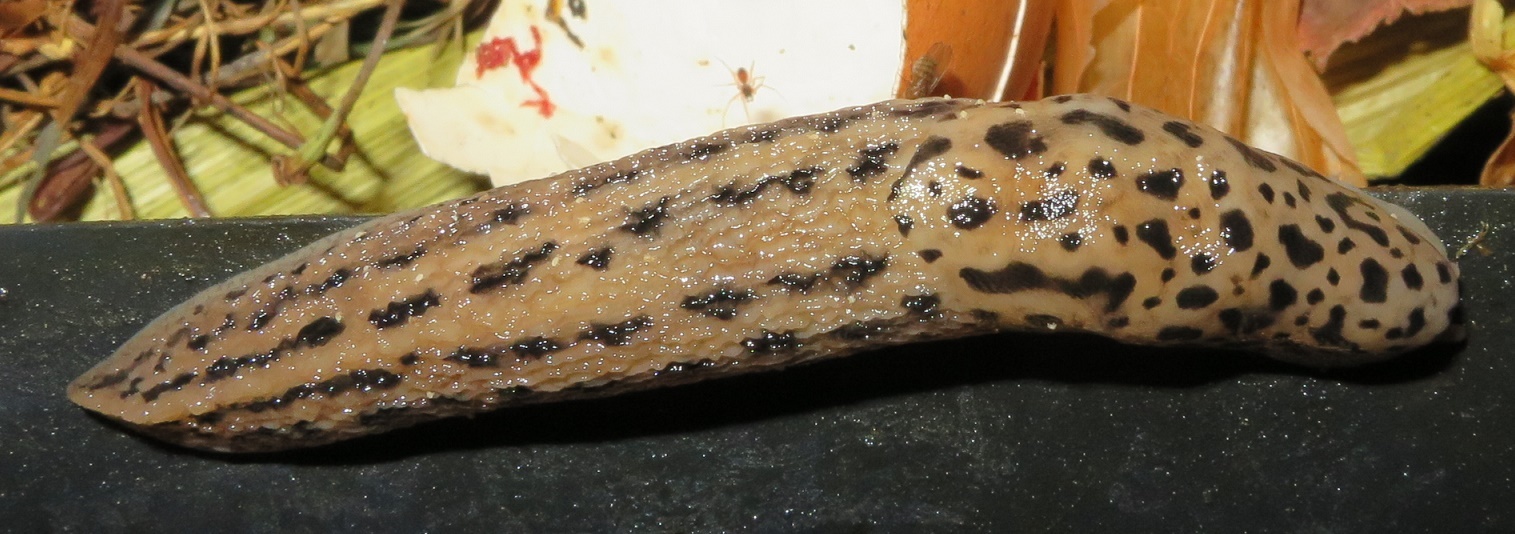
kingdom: Animalia
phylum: Mollusca
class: Gastropoda
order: Stylommatophora
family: Limacidae
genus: Limax
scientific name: Limax maximus
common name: Great grey slug
